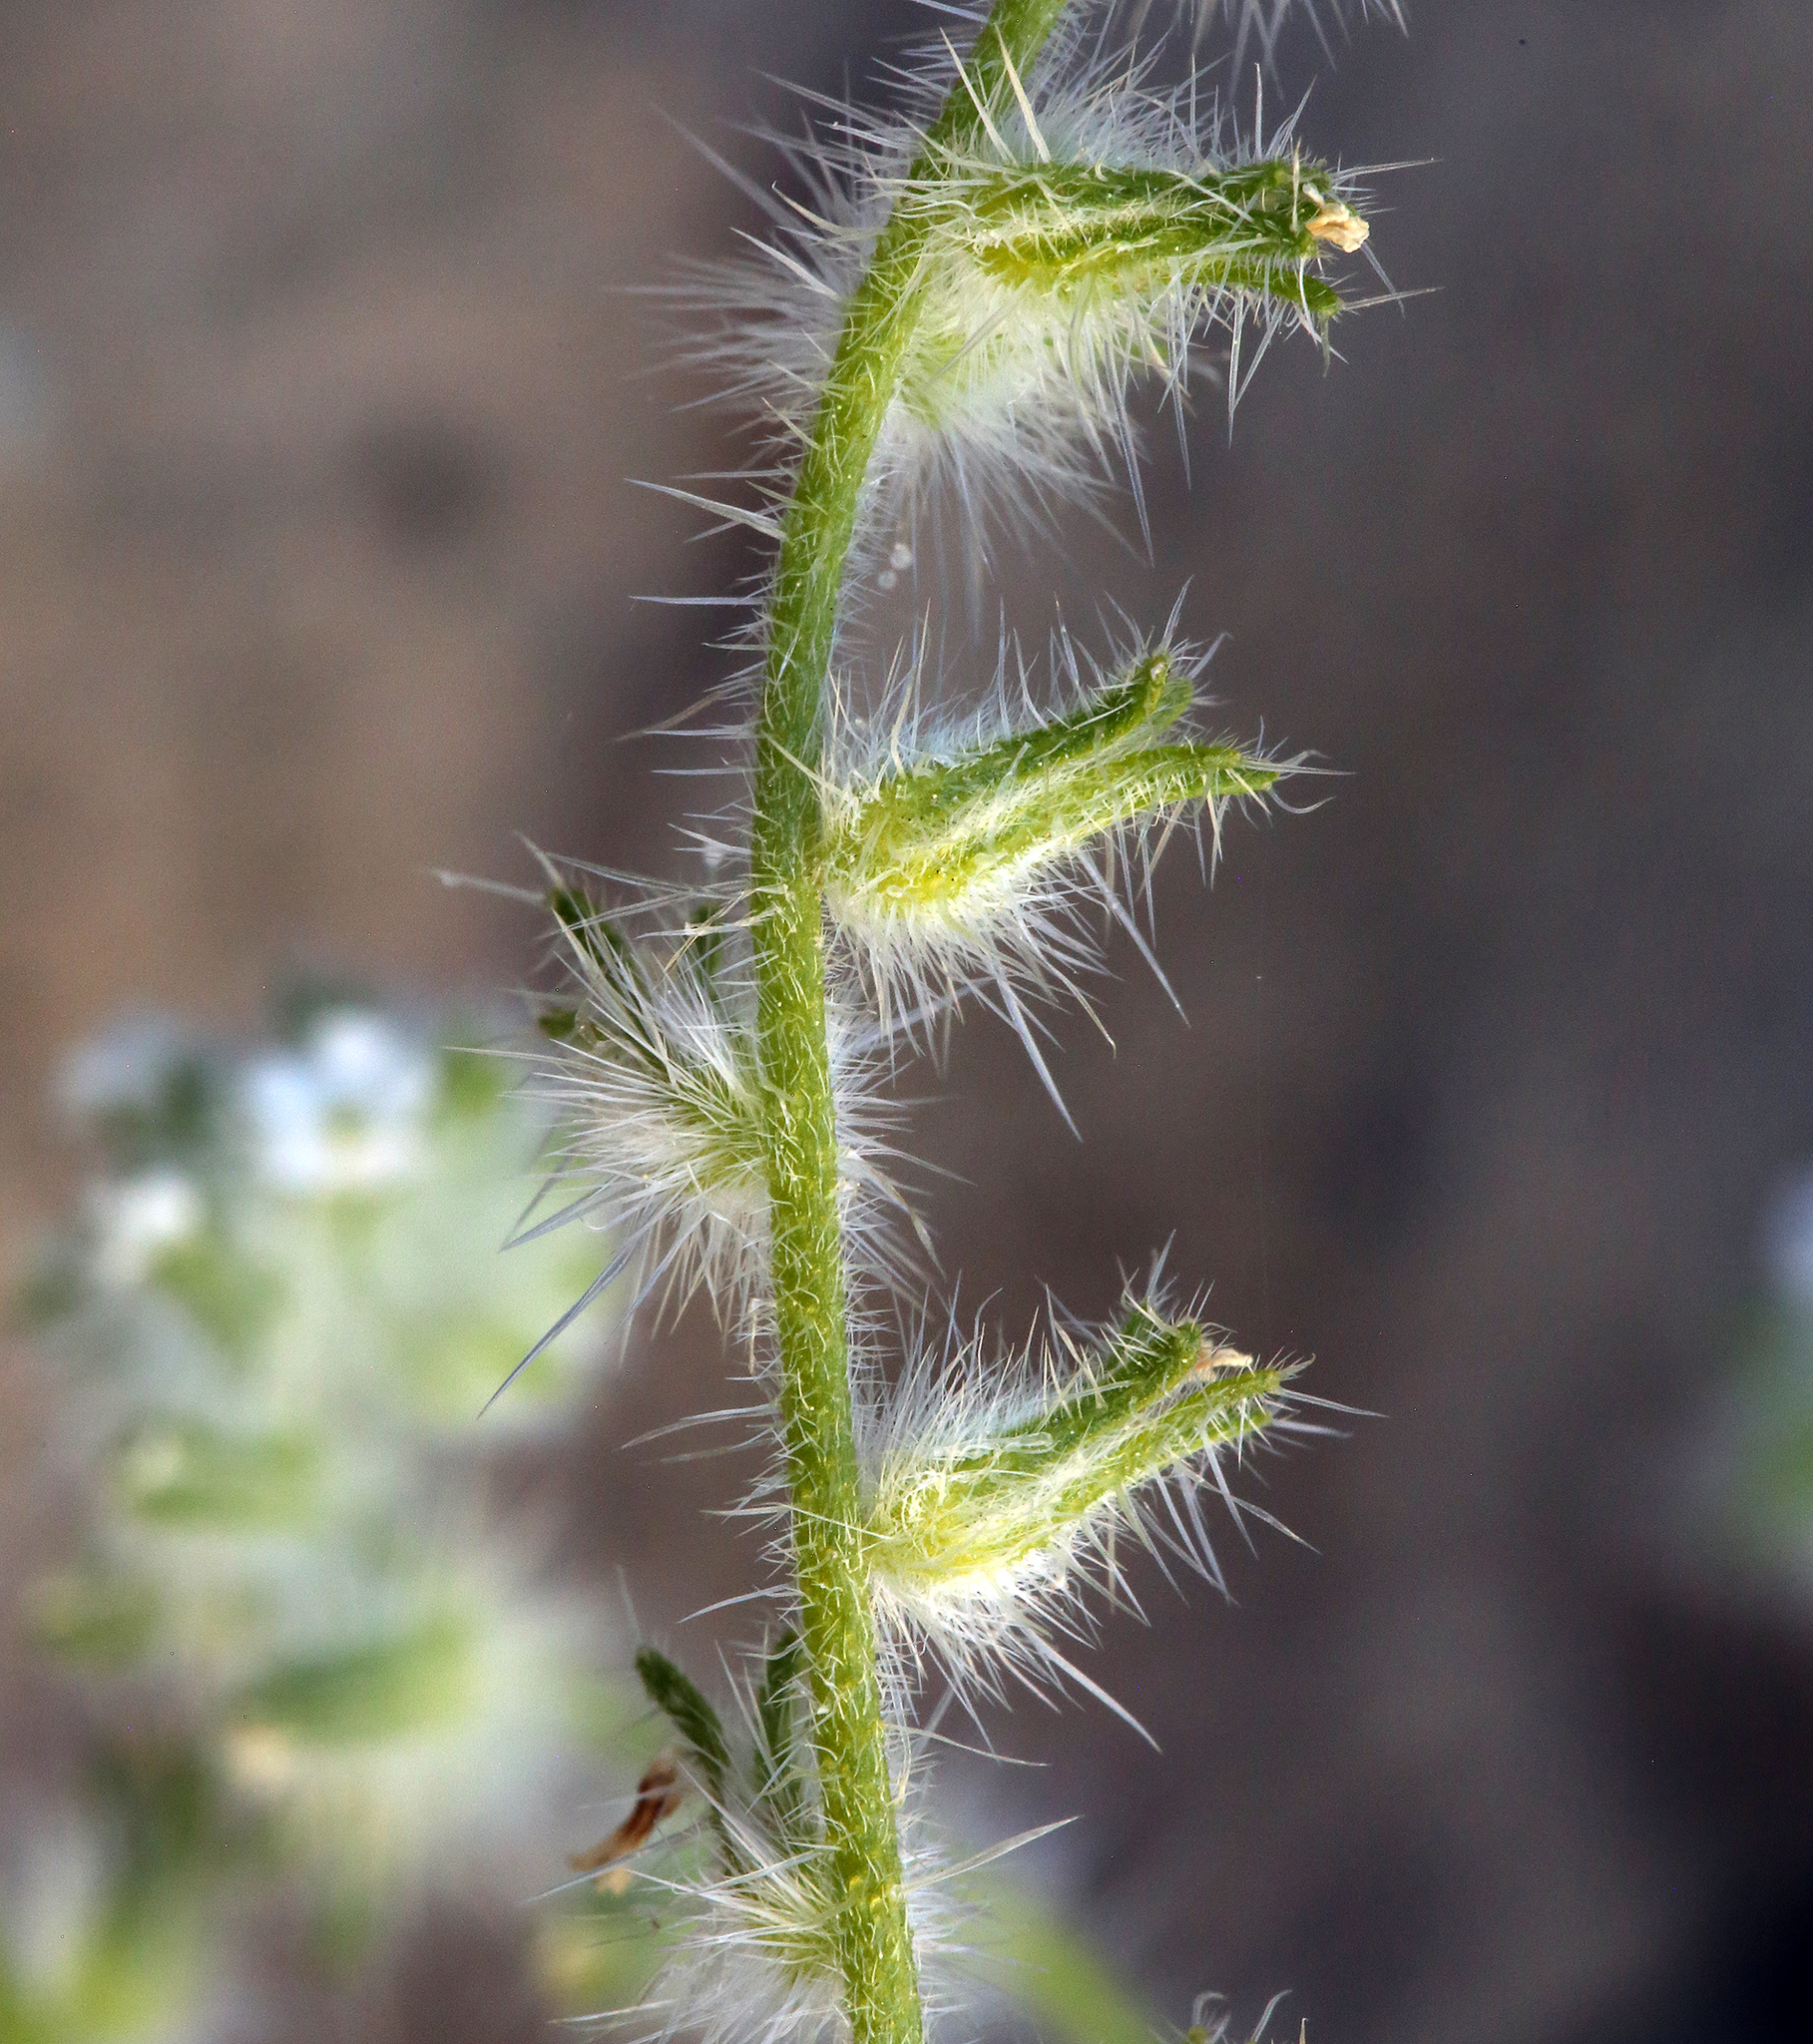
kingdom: Plantae
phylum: Tracheophyta
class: Magnoliopsida
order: Boraginales
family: Boraginaceae
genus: Cryptantha
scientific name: Cryptantha barbigera
